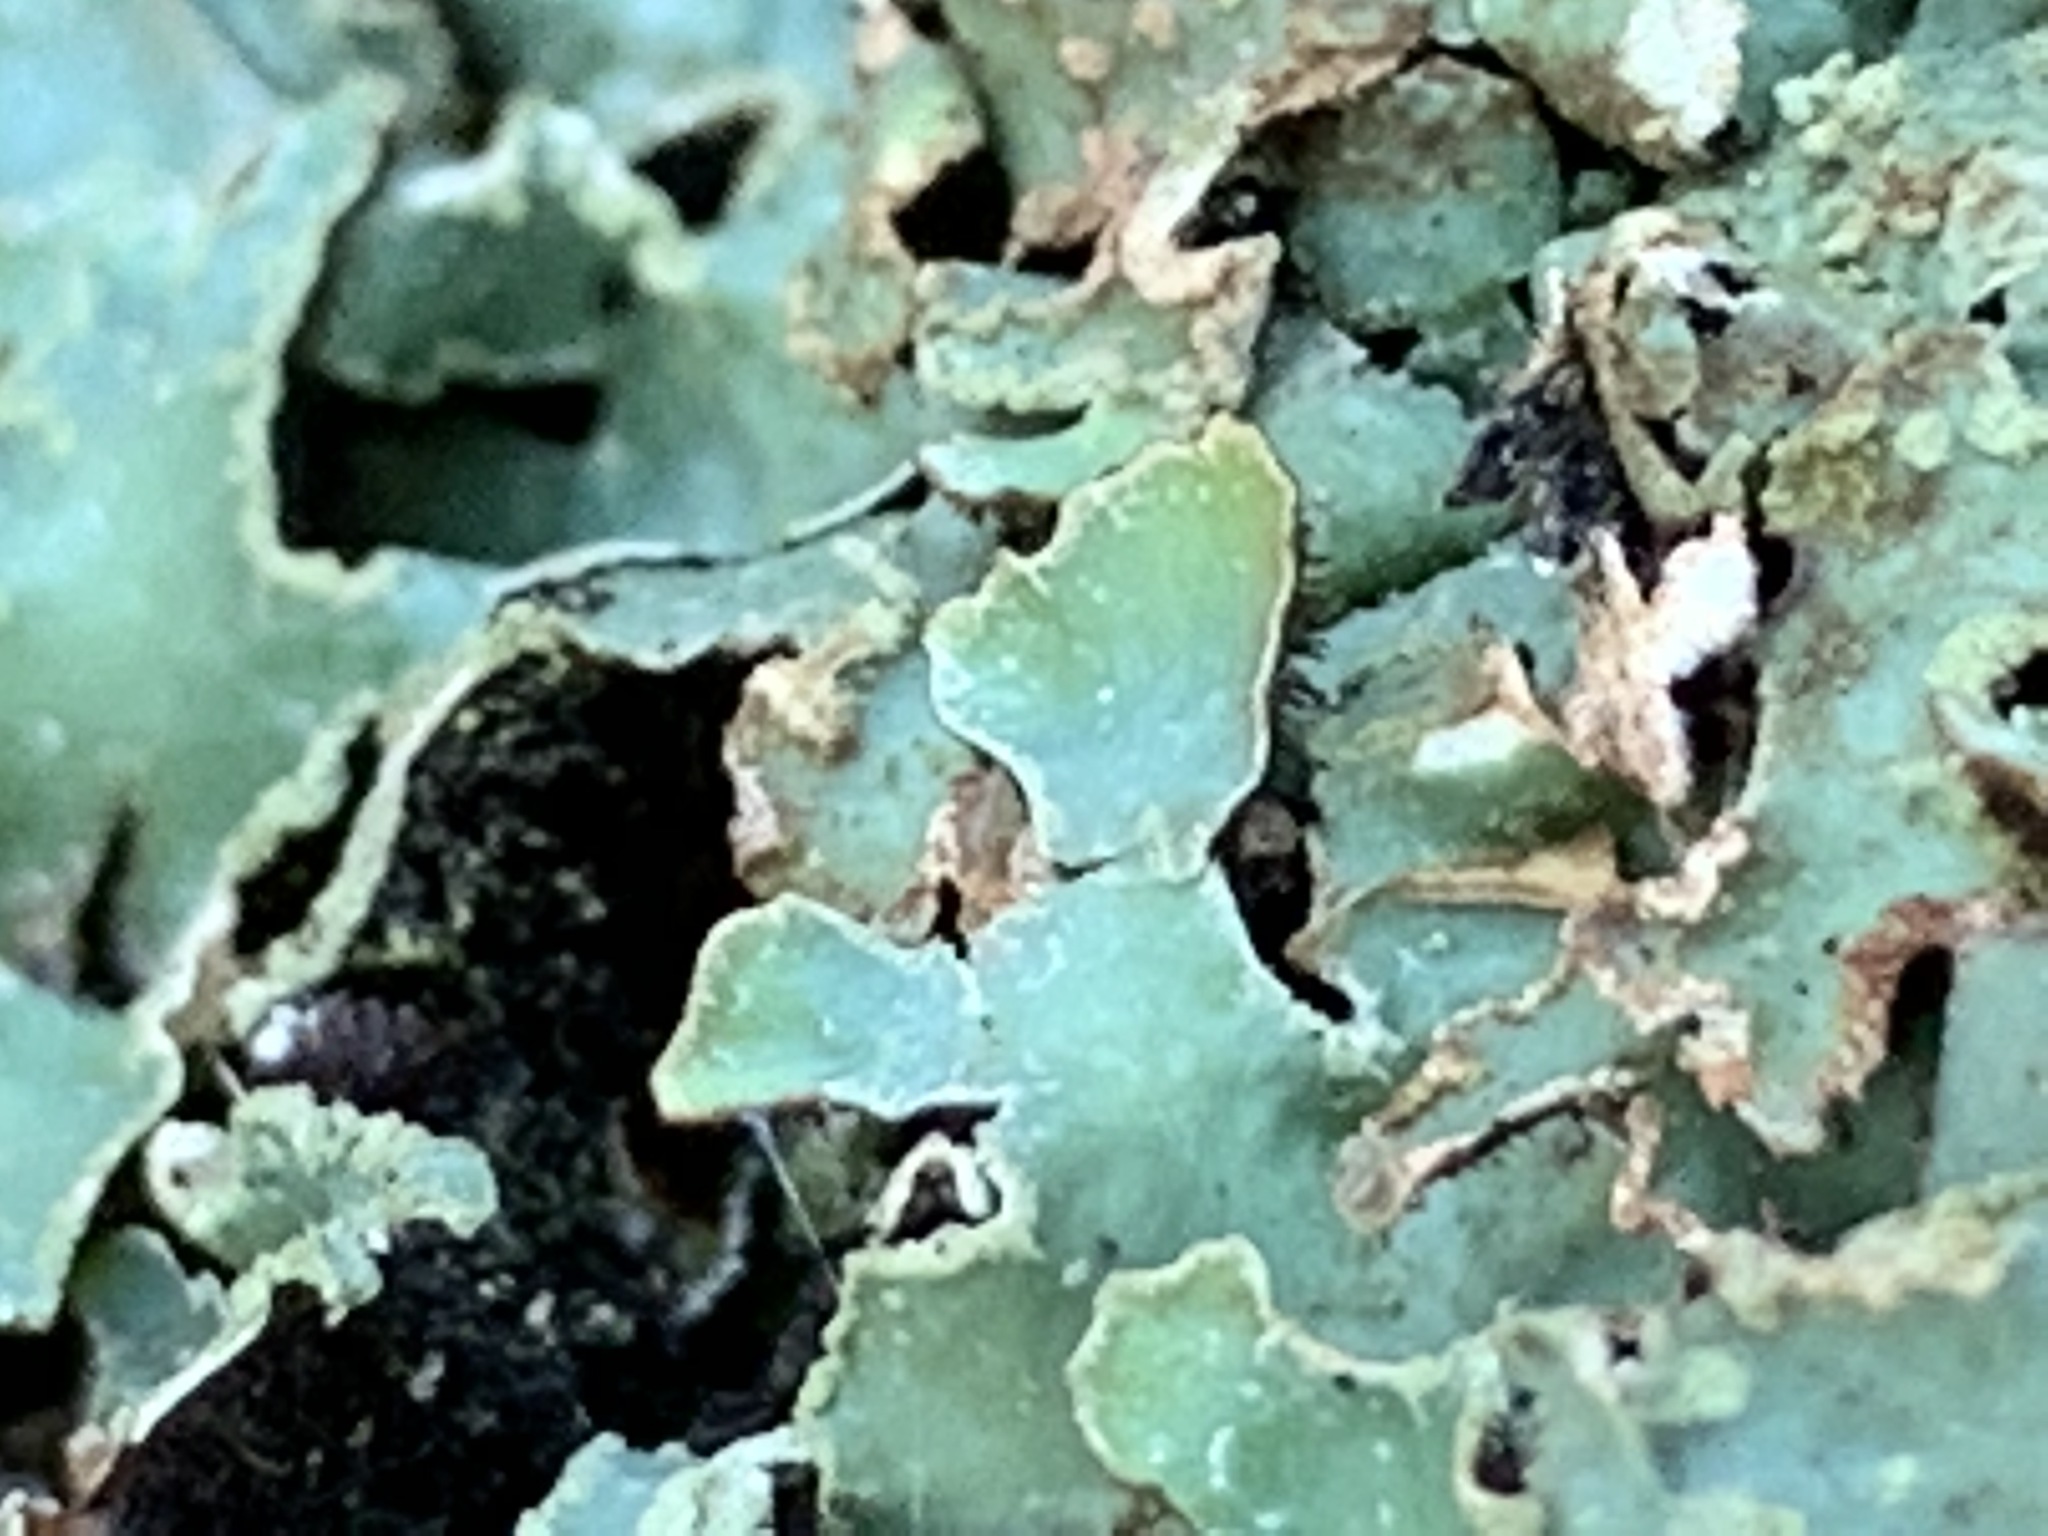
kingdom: Fungi
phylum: Ascomycota
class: Lecanoromycetes
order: Lecanorales
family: Parmeliaceae
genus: Parmelia
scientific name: Parmelia sulcata
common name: Netted shield lichen
